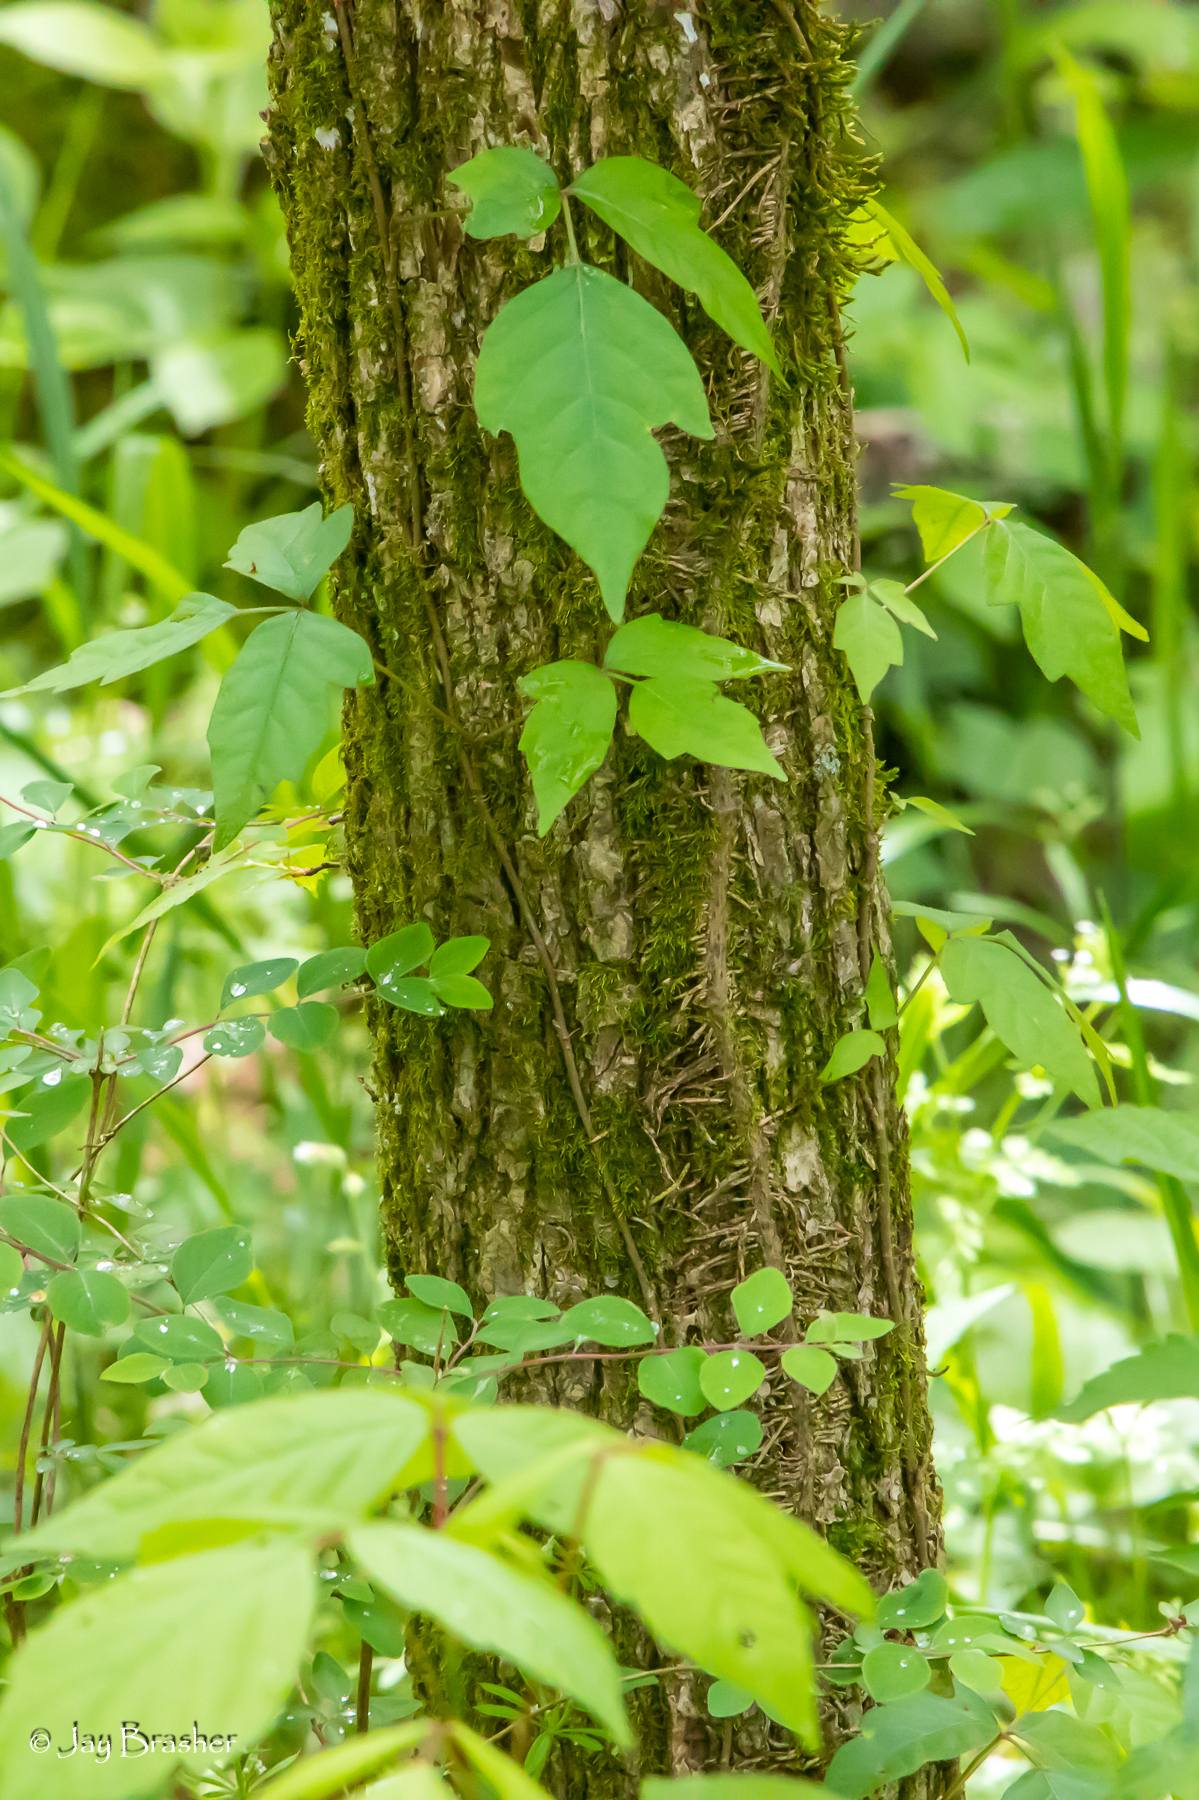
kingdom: Plantae
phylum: Tracheophyta
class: Magnoliopsida
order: Sapindales
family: Anacardiaceae
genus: Toxicodendron
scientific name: Toxicodendron radicans
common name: Poison ivy
